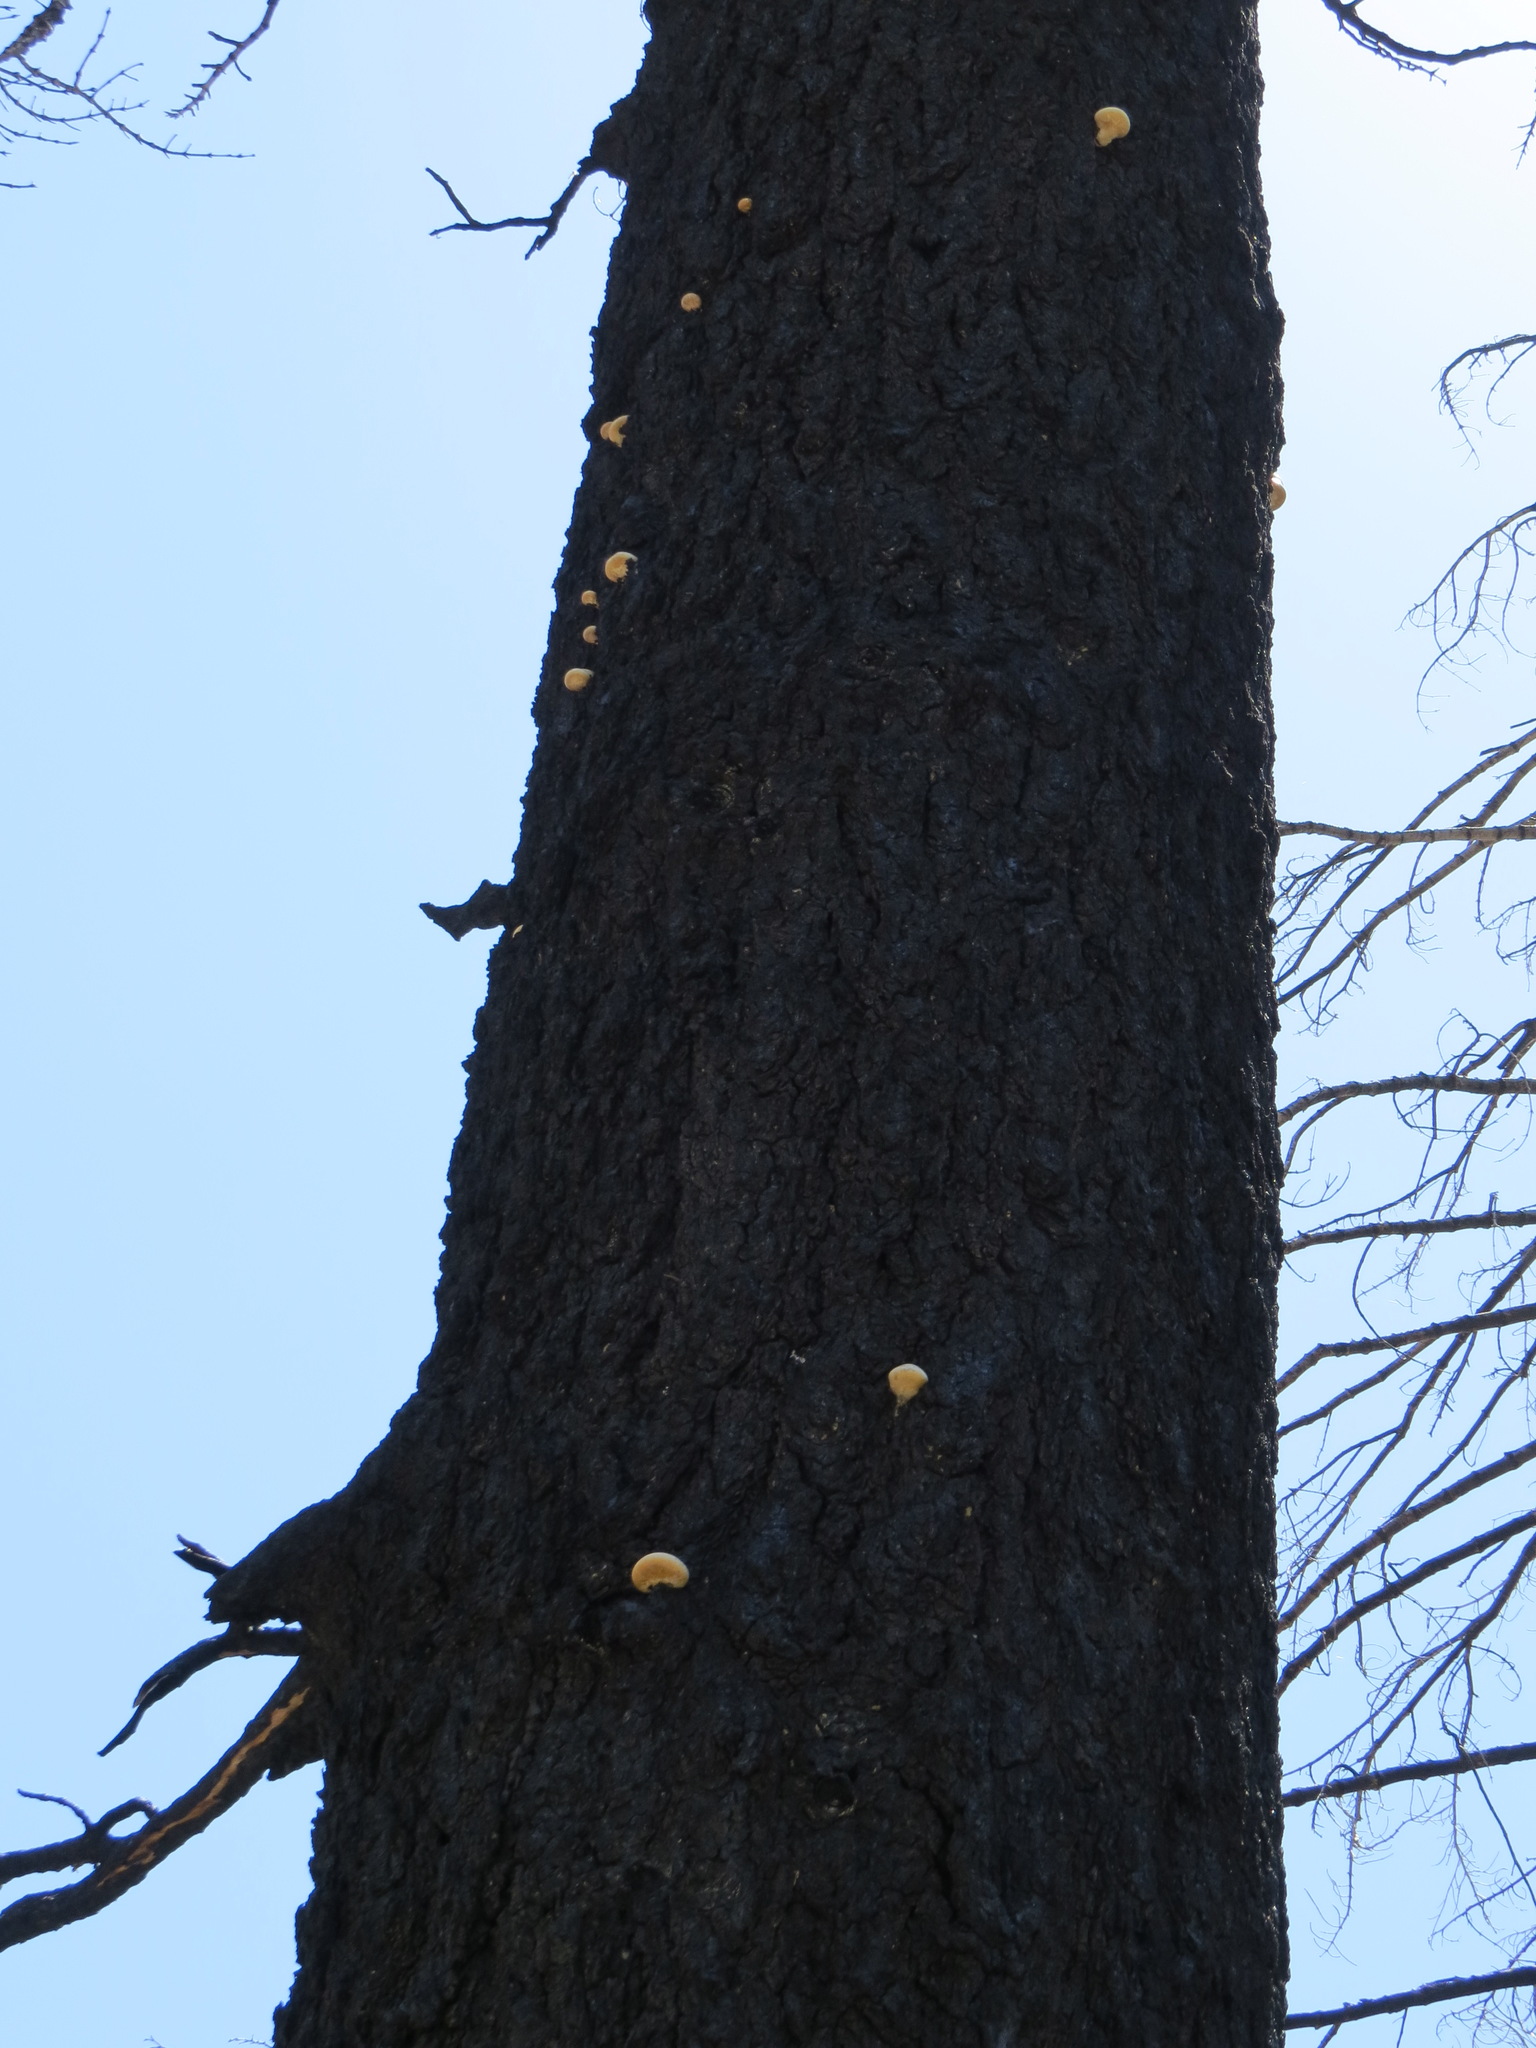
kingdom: Fungi
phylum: Basidiomycota
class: Agaricomycetes
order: Polyporales
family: Polyporaceae
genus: Cryptoporus
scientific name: Cryptoporus volvatus
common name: Veiled polypore
